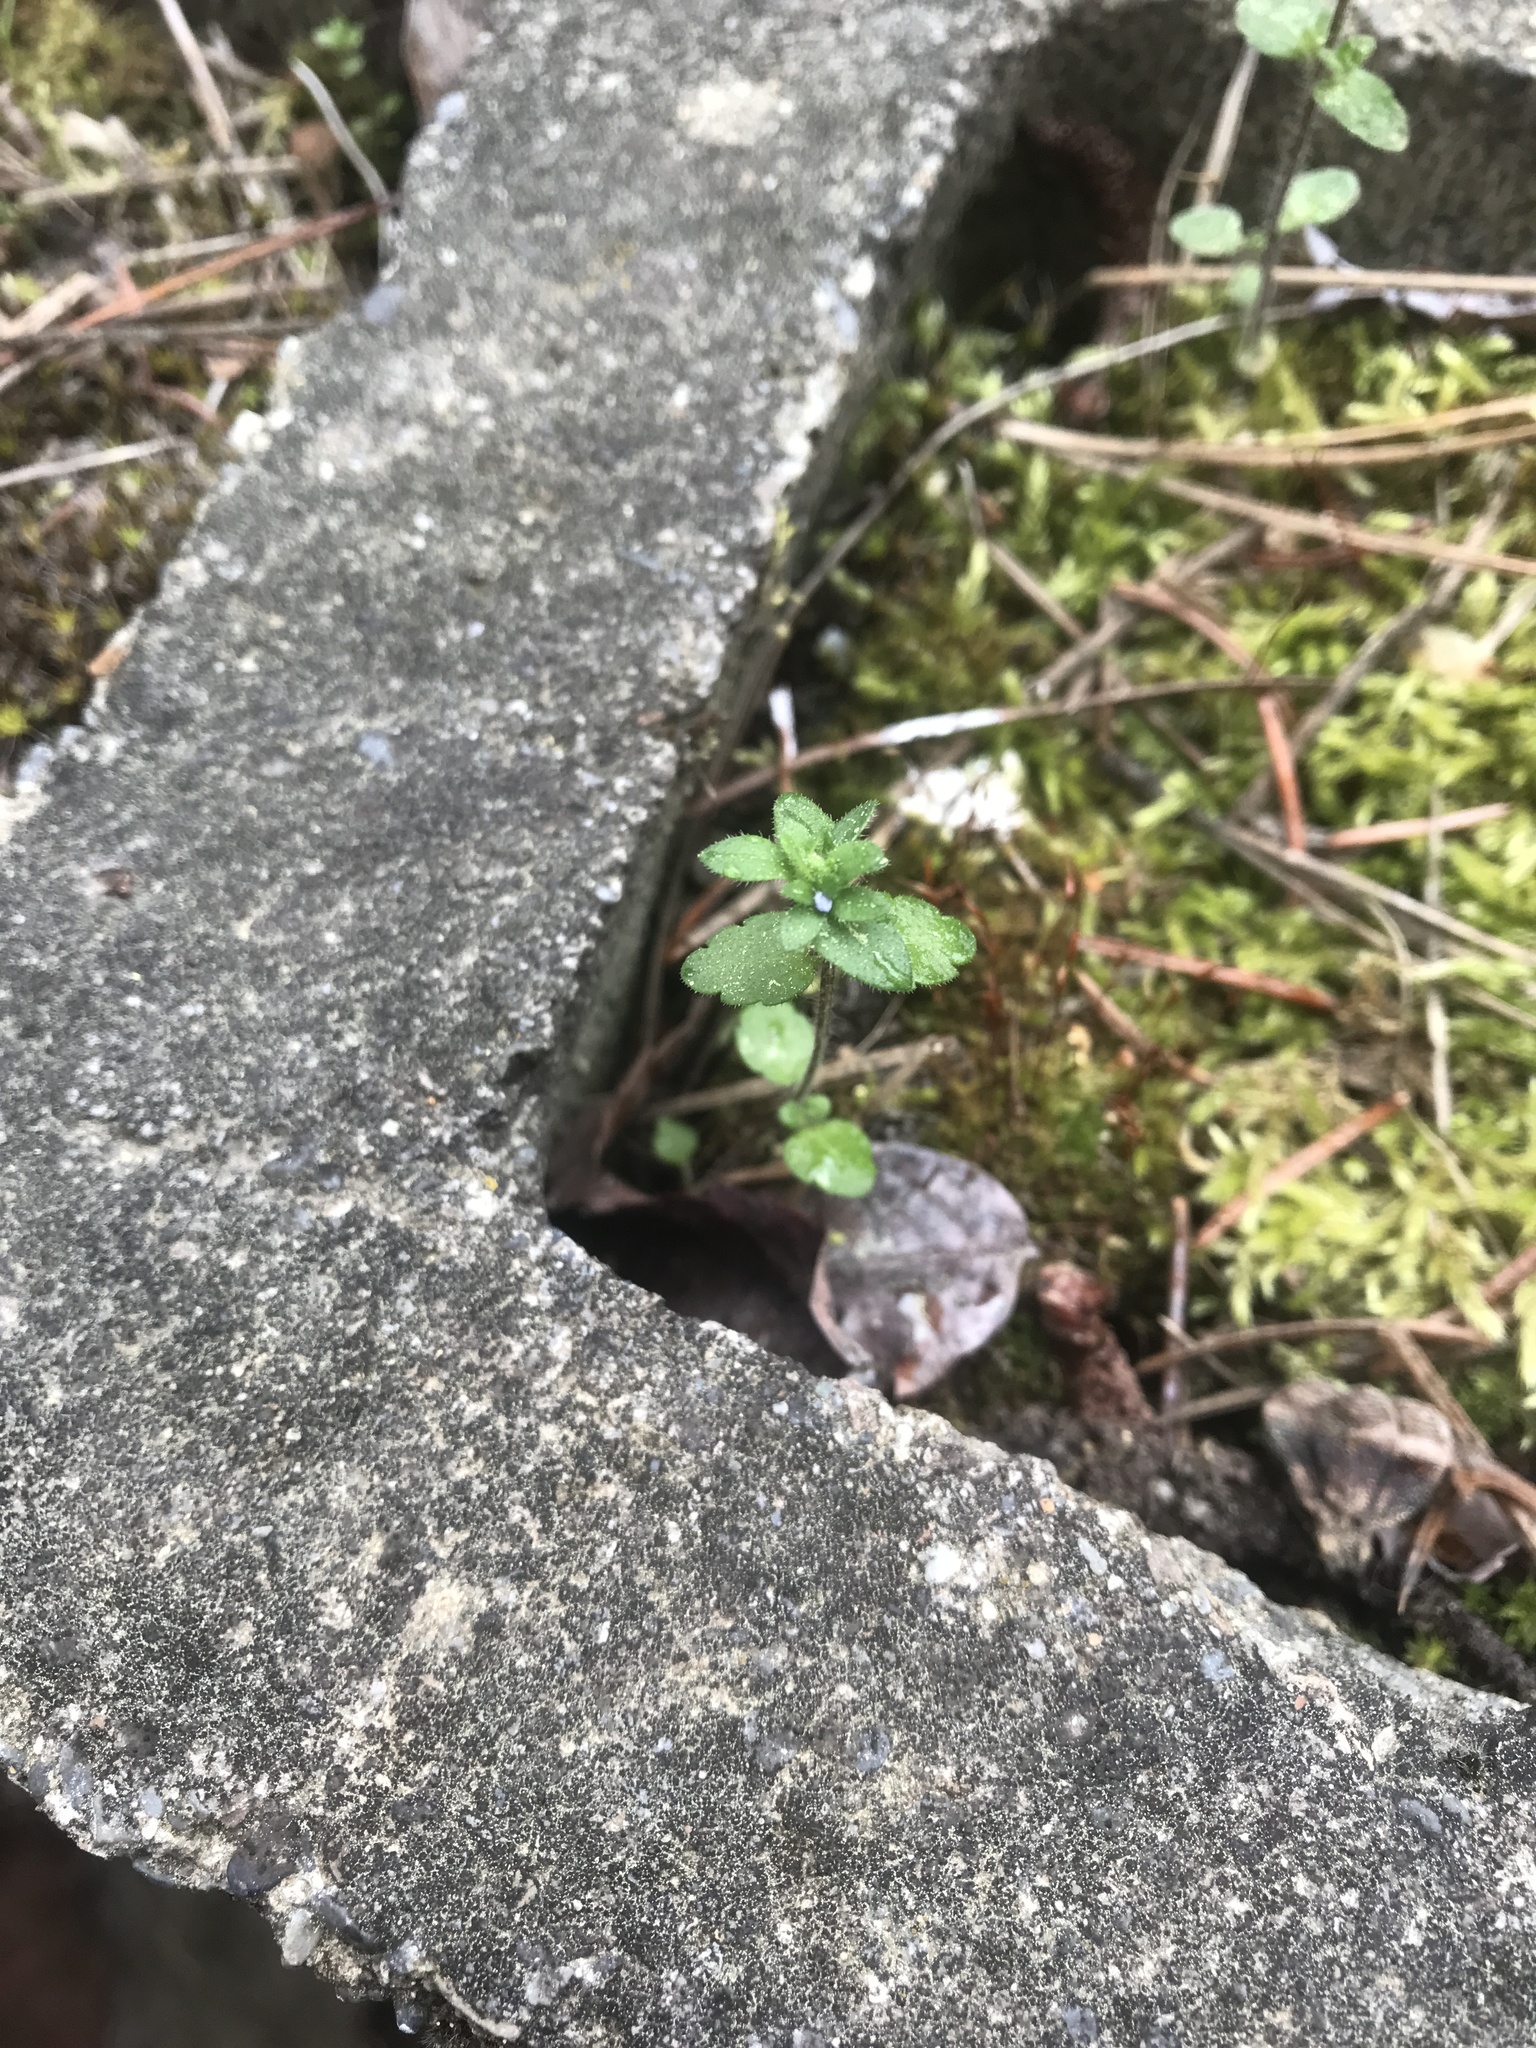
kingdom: Plantae
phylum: Tracheophyta
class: Magnoliopsida
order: Lamiales
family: Plantaginaceae
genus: Veronica
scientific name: Veronica arvensis
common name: Corn speedwell
